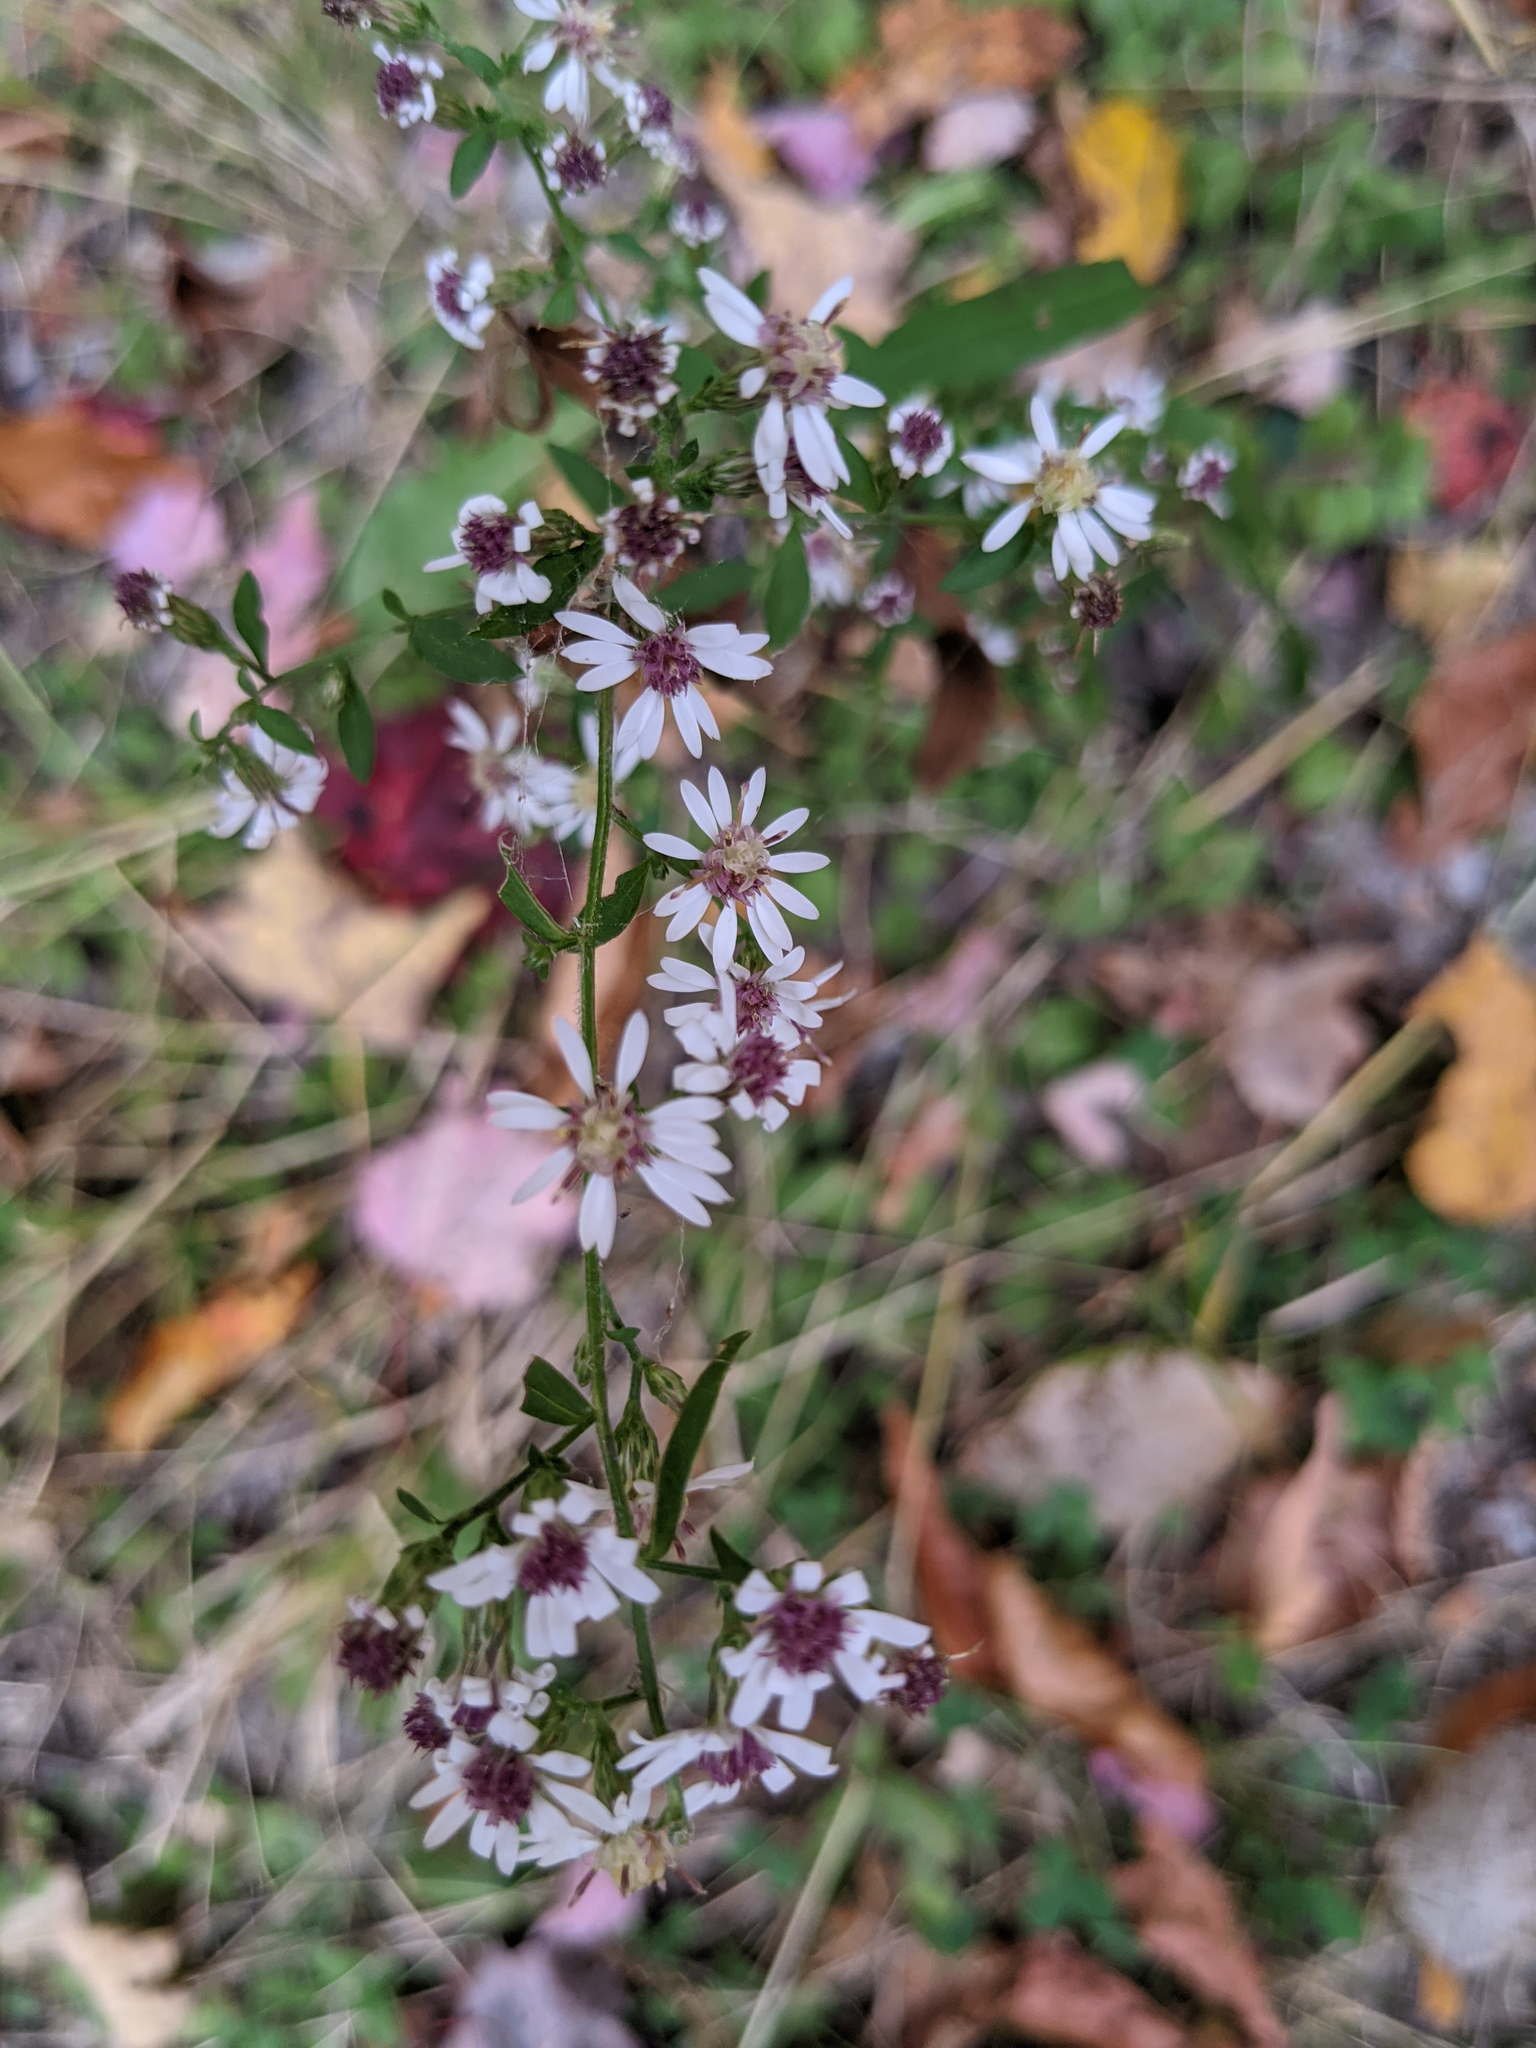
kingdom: Plantae
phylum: Tracheophyta
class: Magnoliopsida
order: Asterales
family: Asteraceae
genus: Symphyotrichum
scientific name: Symphyotrichum lateriflorum
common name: Calico aster
